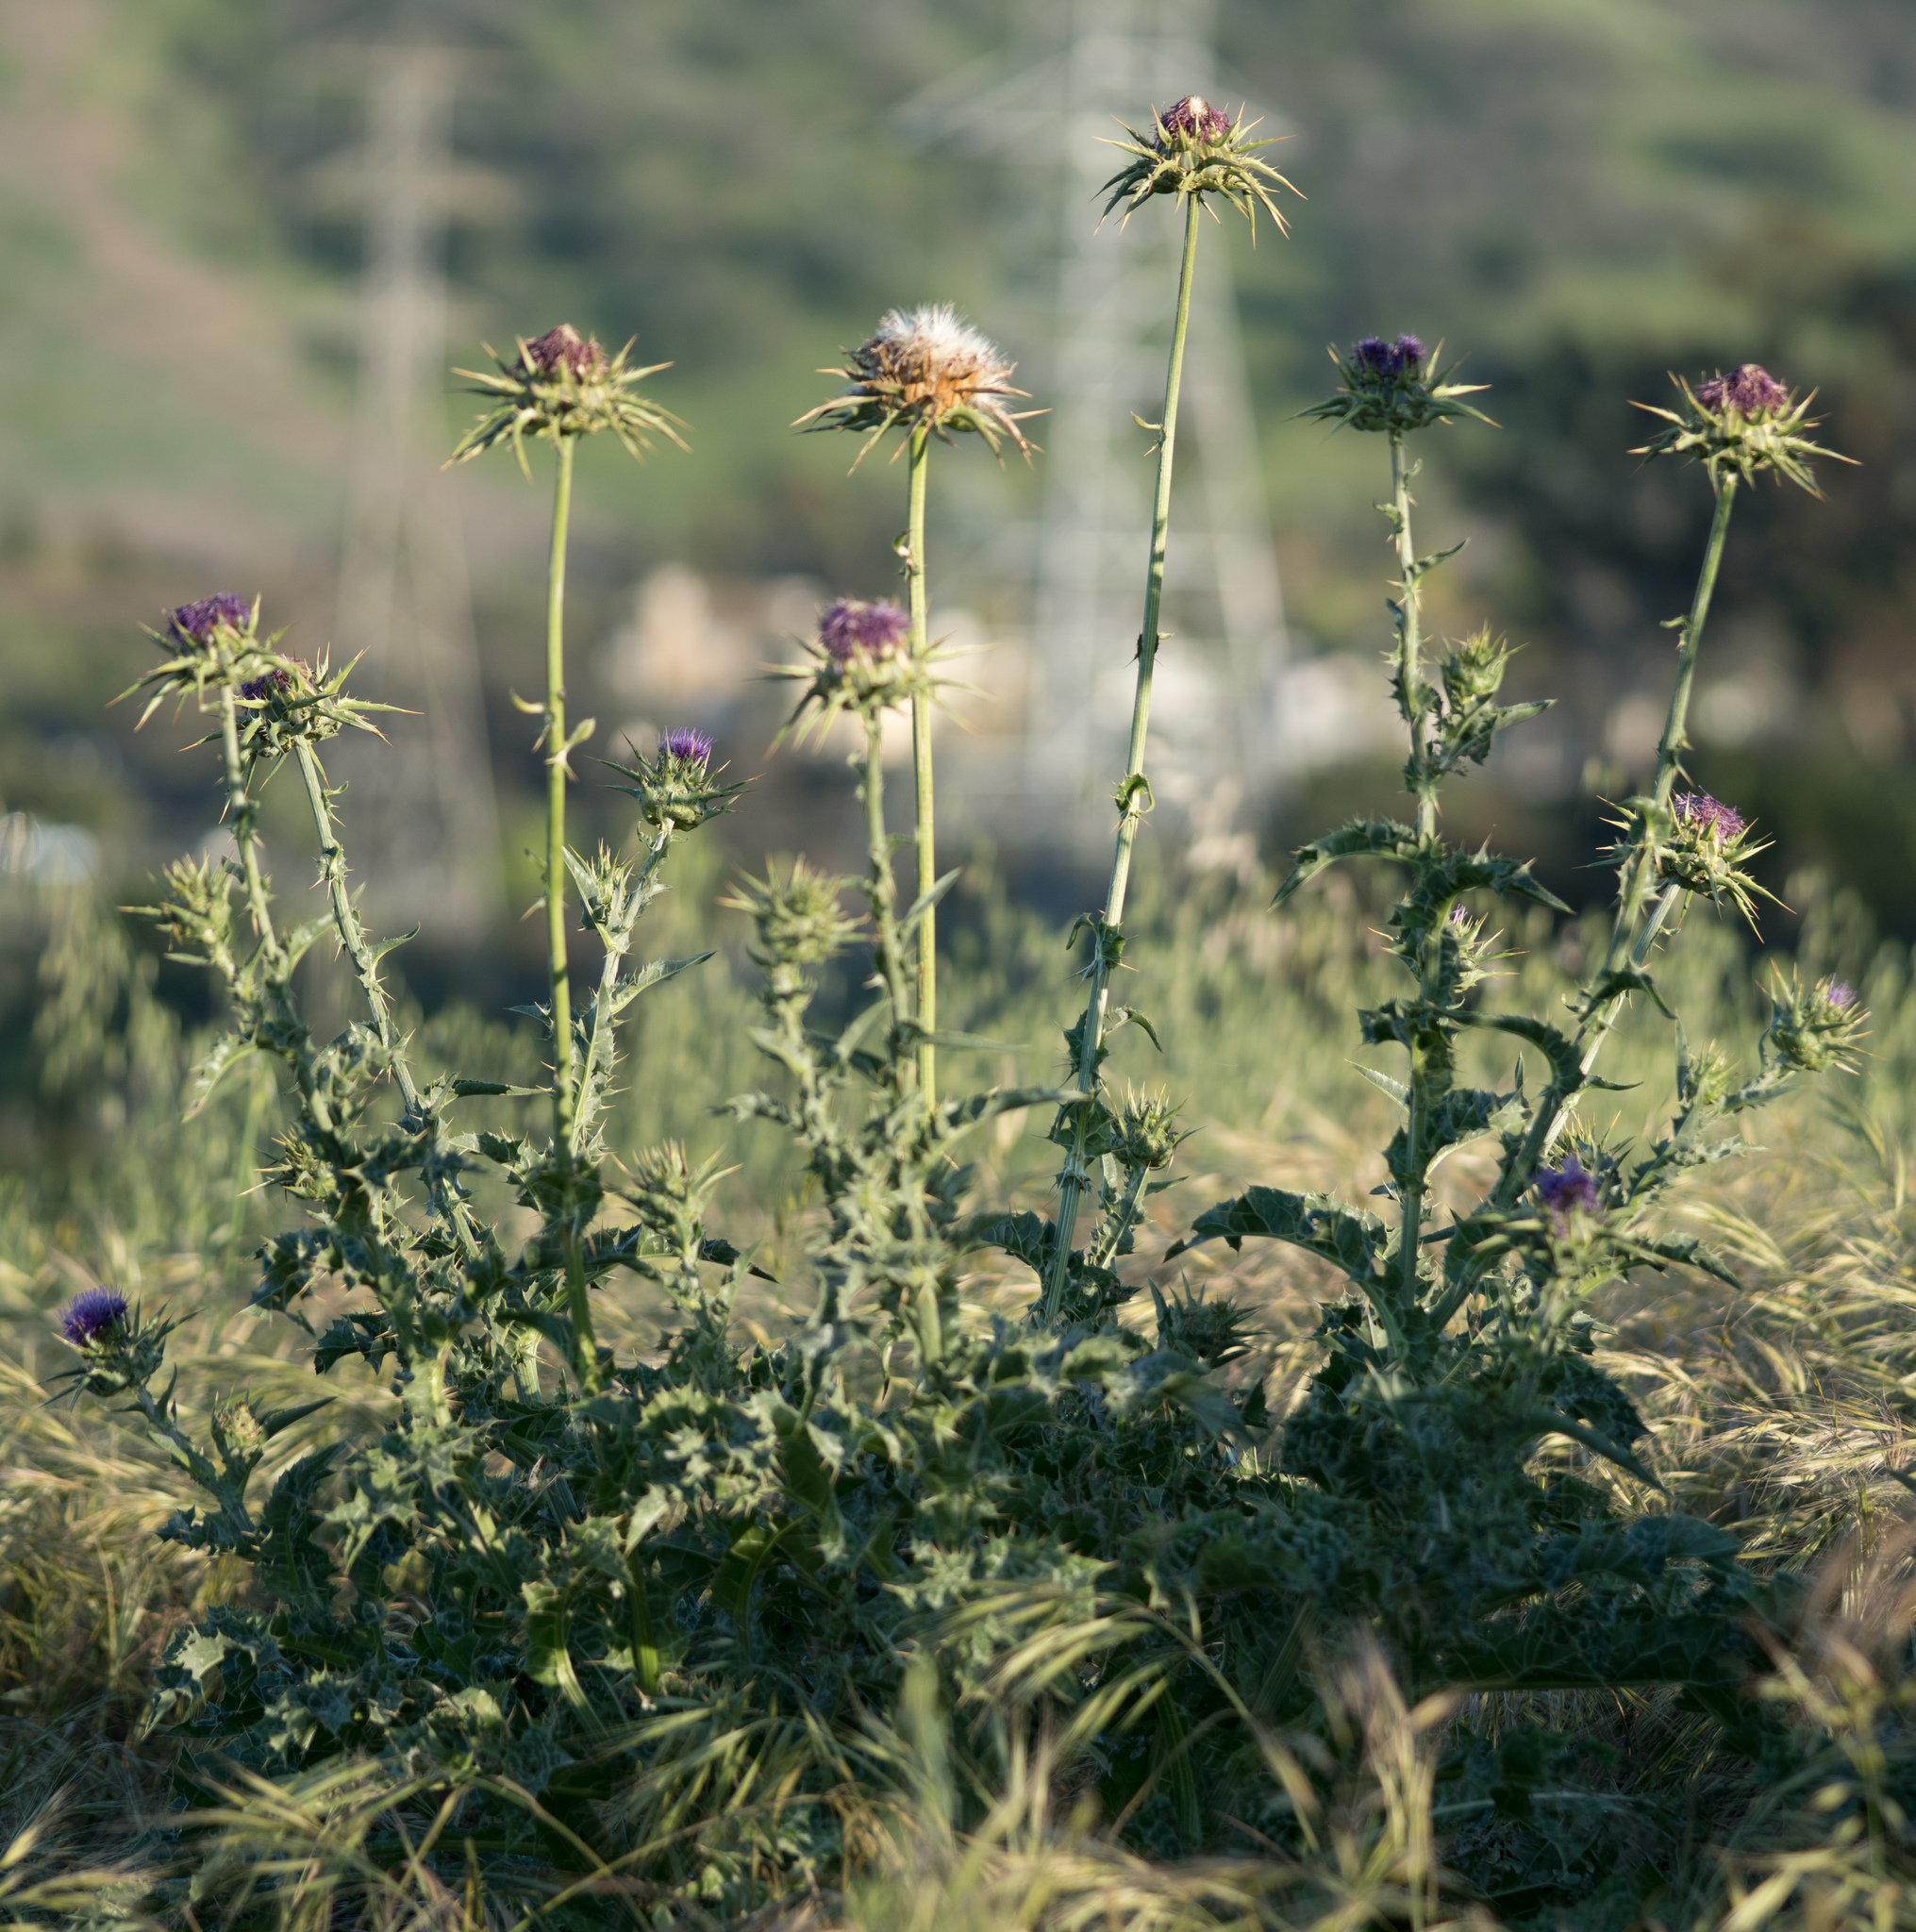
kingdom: Plantae
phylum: Tracheophyta
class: Magnoliopsida
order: Asterales
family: Asteraceae
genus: Silybum
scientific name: Silybum marianum
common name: Milk thistle
